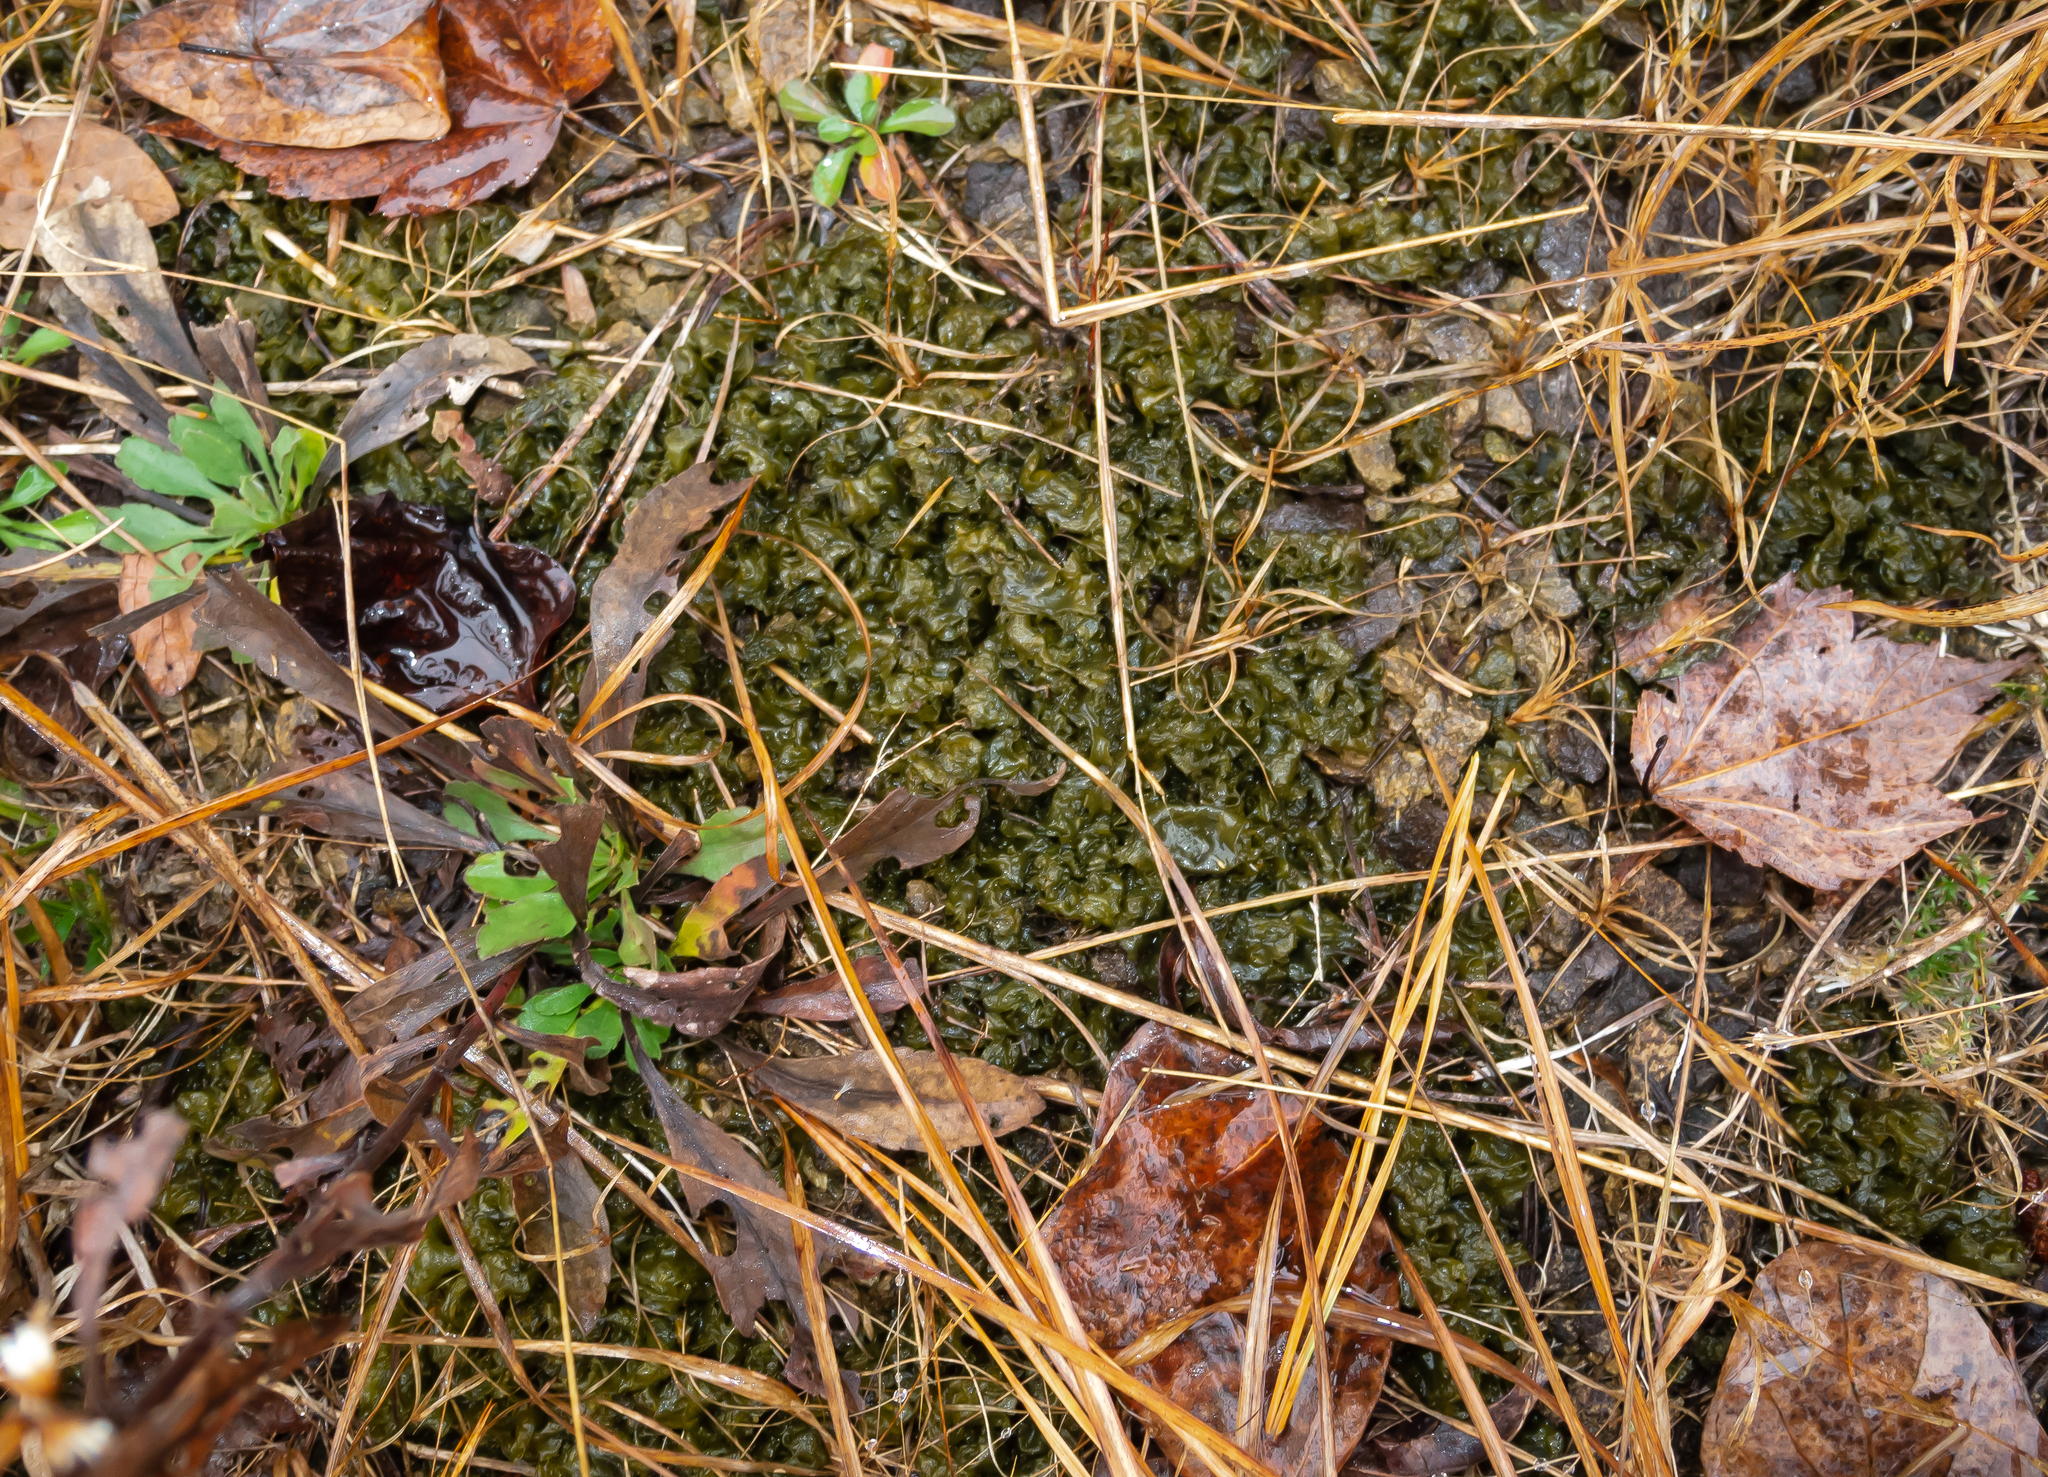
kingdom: Bacteria
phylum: Cyanobacteria
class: Cyanobacteriia
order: Cyanobacteriales
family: Nostocaceae
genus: Nostoc
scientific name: Nostoc commune
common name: Star jelly
